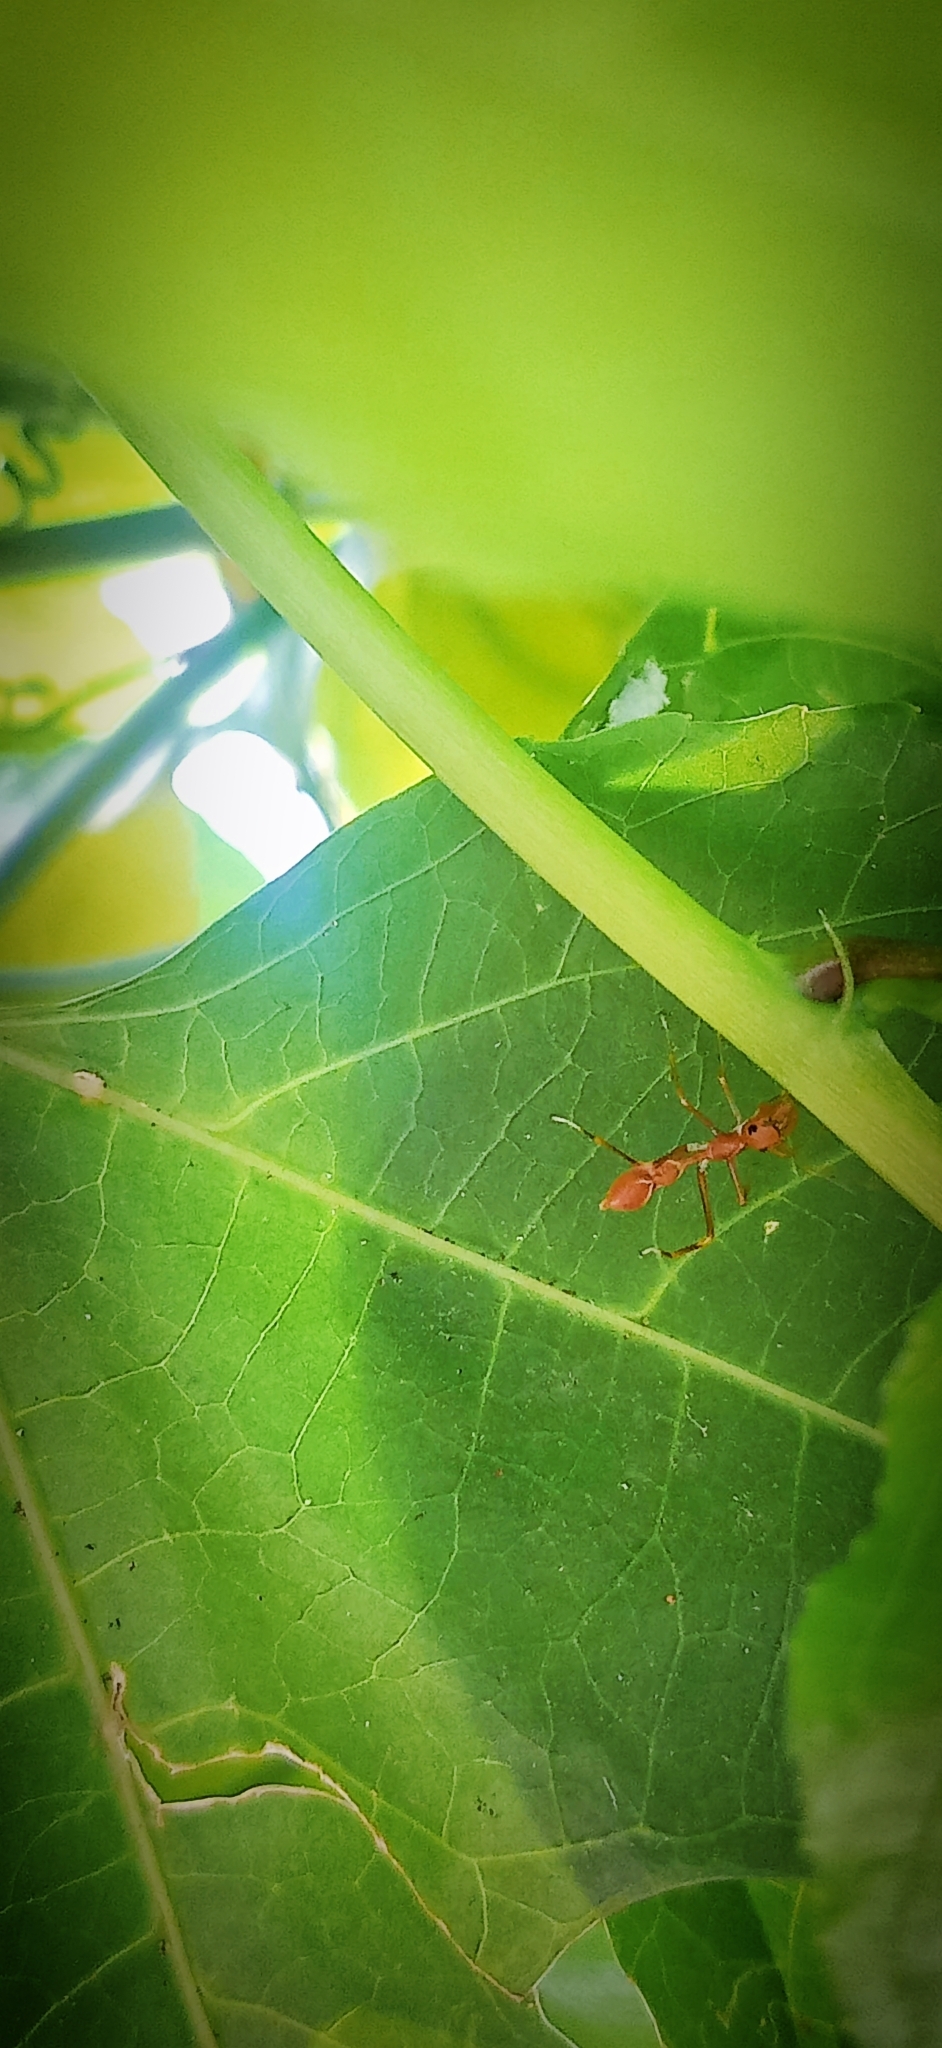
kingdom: Animalia
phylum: Arthropoda
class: Arachnida
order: Araneae
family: Salticidae
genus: Myrmaplata
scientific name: Myrmaplata plataleoides
